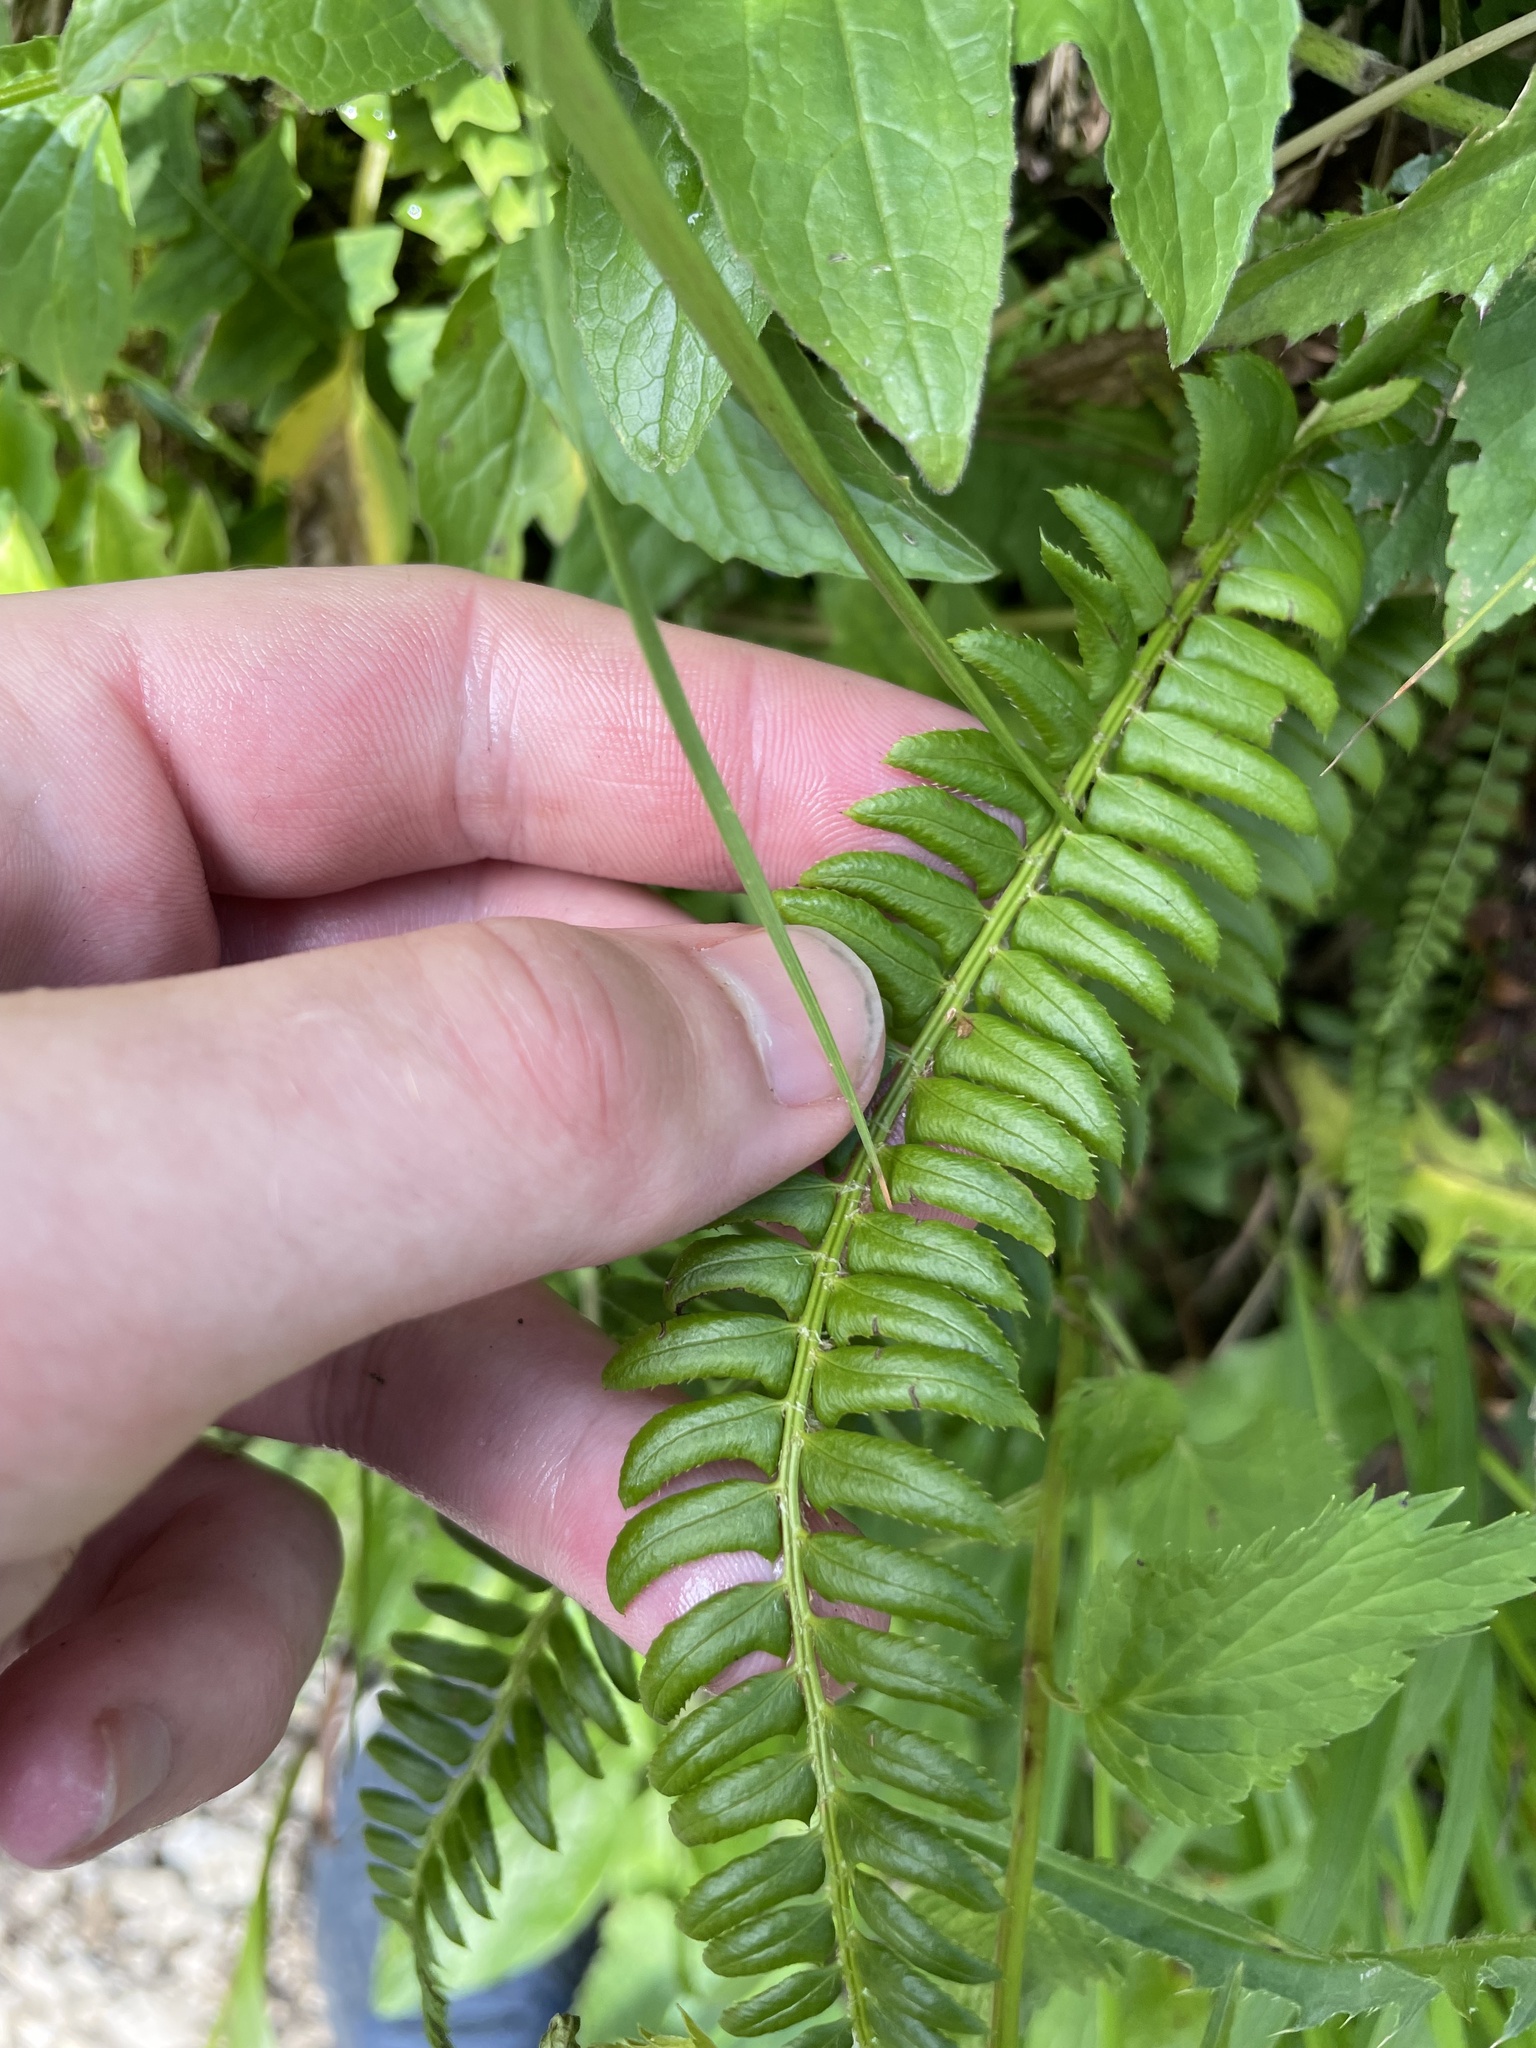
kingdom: Plantae
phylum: Tracheophyta
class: Polypodiopsida
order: Polypodiales
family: Dryopteridaceae
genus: Polystichum
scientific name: Polystichum lonchitis
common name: Holly fern
